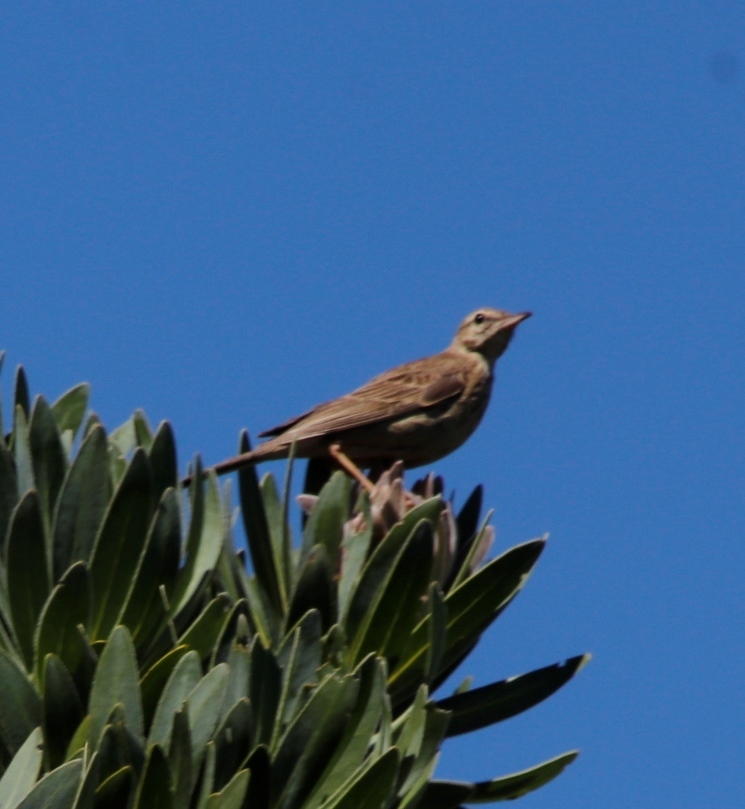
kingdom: Animalia
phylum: Chordata
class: Aves
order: Passeriformes
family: Motacillidae
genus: Anthus
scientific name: Anthus nicholsoni
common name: Nicholson's pipit
